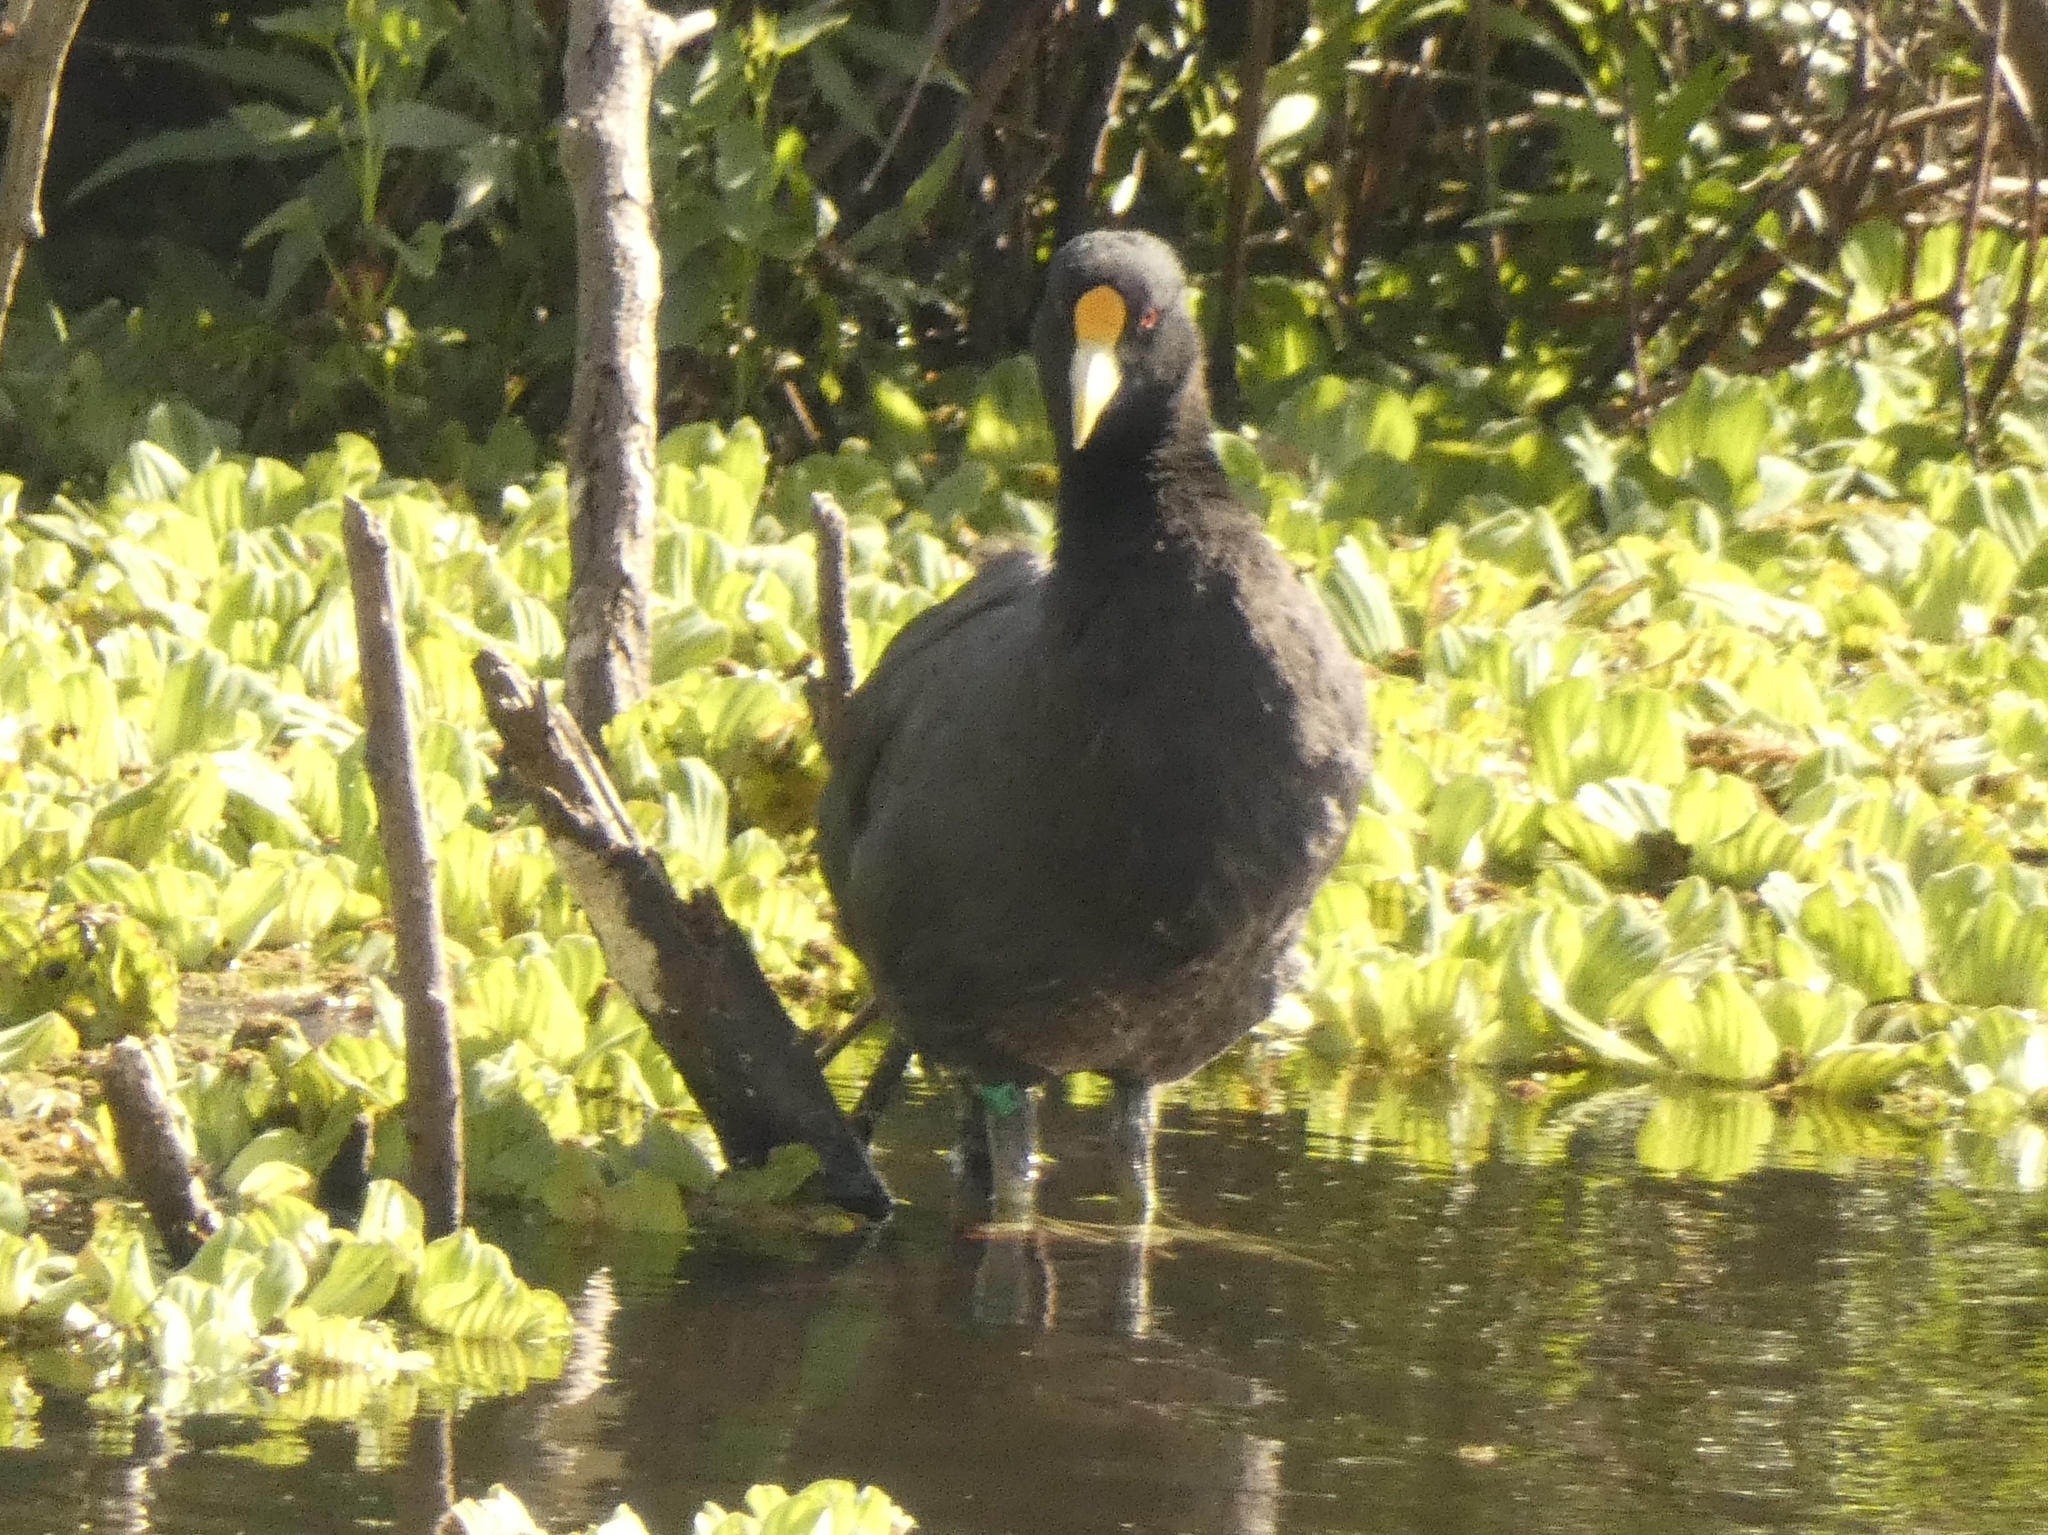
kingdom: Animalia
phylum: Chordata
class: Aves
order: Gruiformes
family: Rallidae
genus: Fulica
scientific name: Fulica leucoptera
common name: White-winged coot
